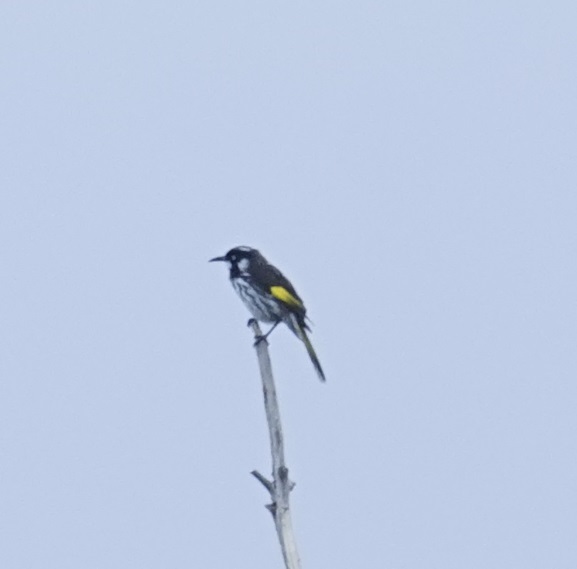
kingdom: Animalia
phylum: Chordata
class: Aves
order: Passeriformes
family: Meliphagidae
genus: Phylidonyris
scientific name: Phylidonyris novaehollandiae
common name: New holland honeyeater
